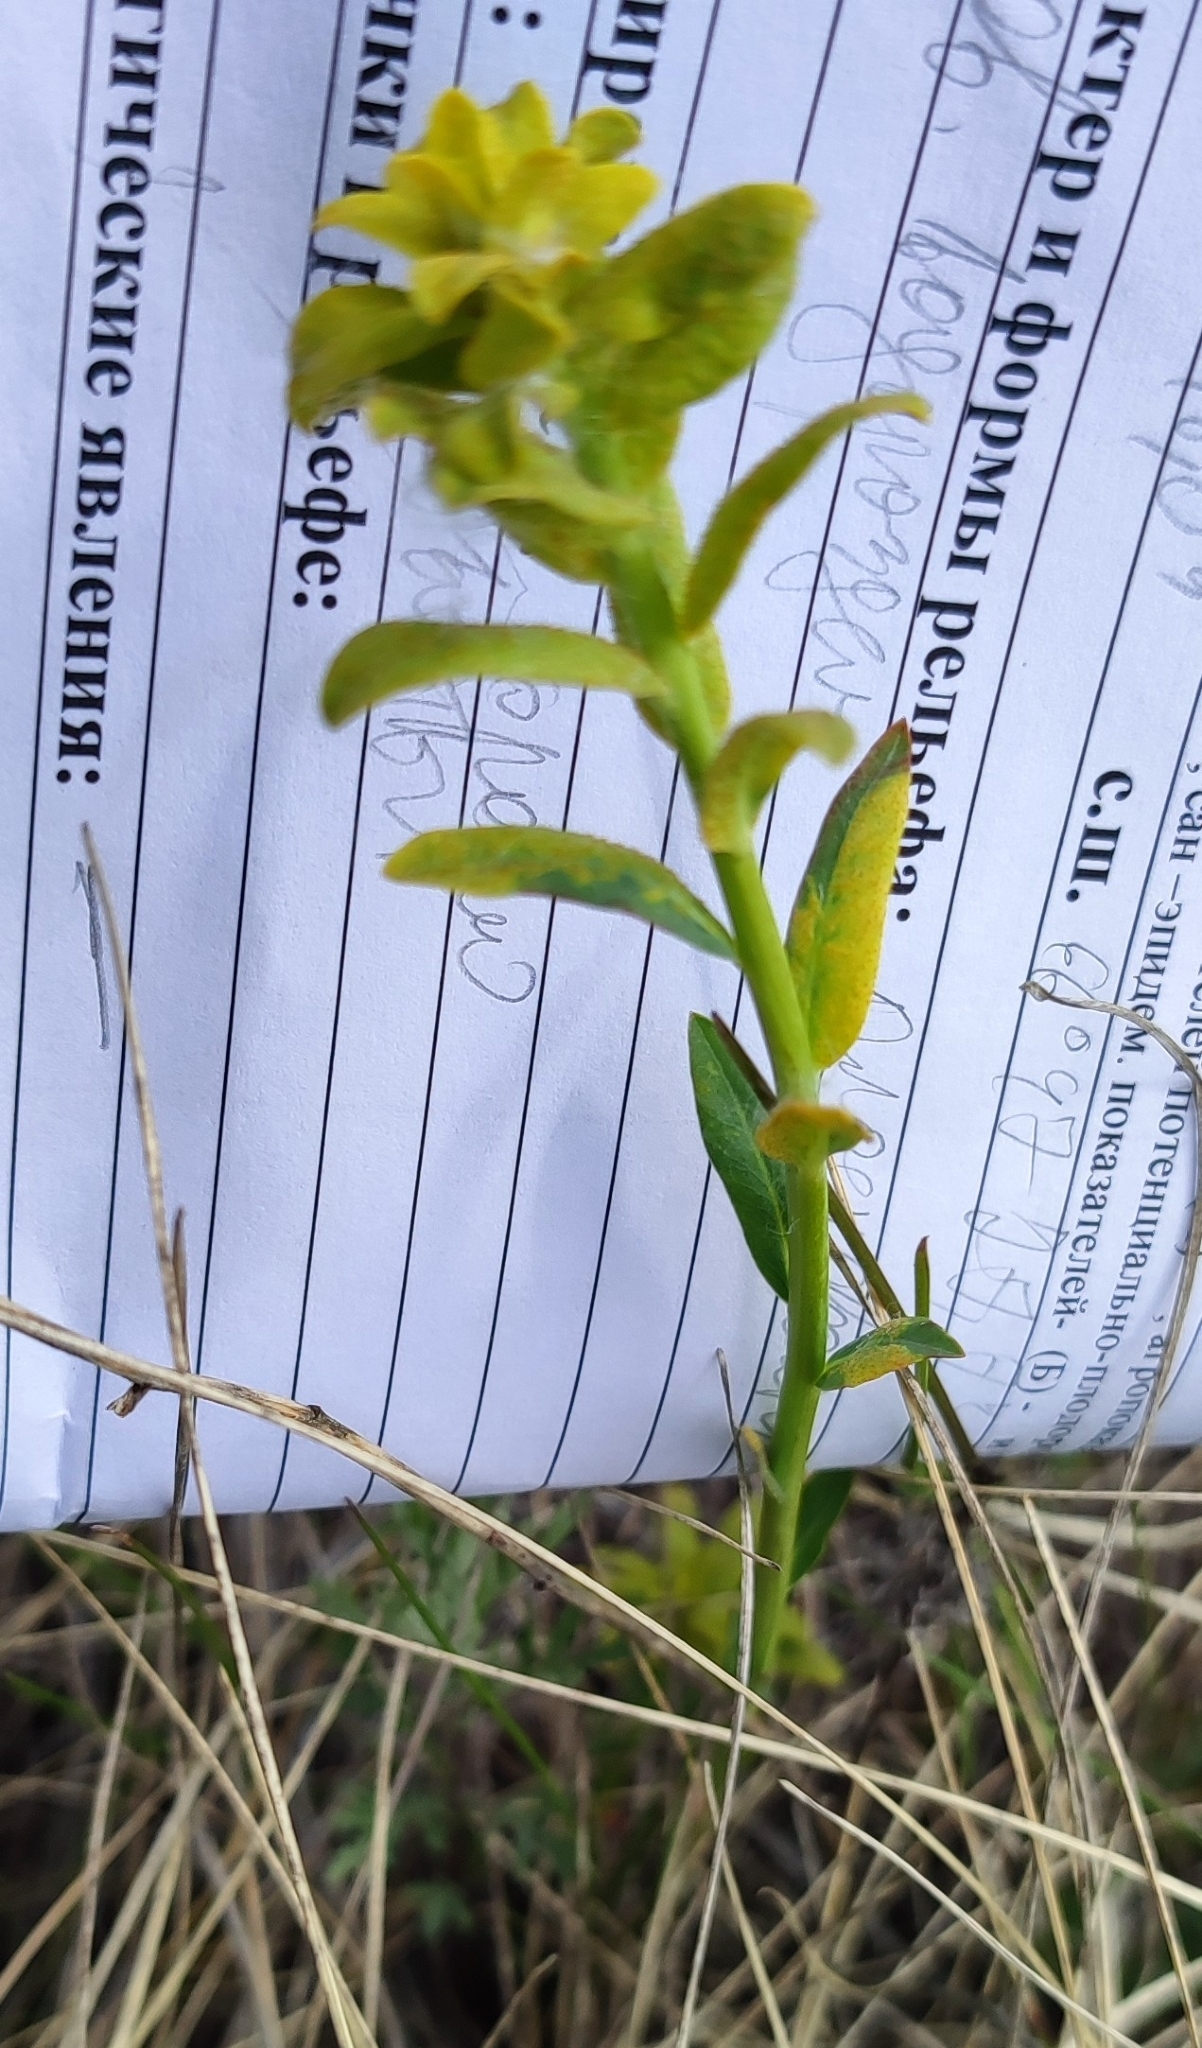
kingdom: Plantae
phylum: Tracheophyta
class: Magnoliopsida
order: Malpighiales
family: Euphorbiaceae
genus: Euphorbia
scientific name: Euphorbia virgata
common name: Leafy spurge
